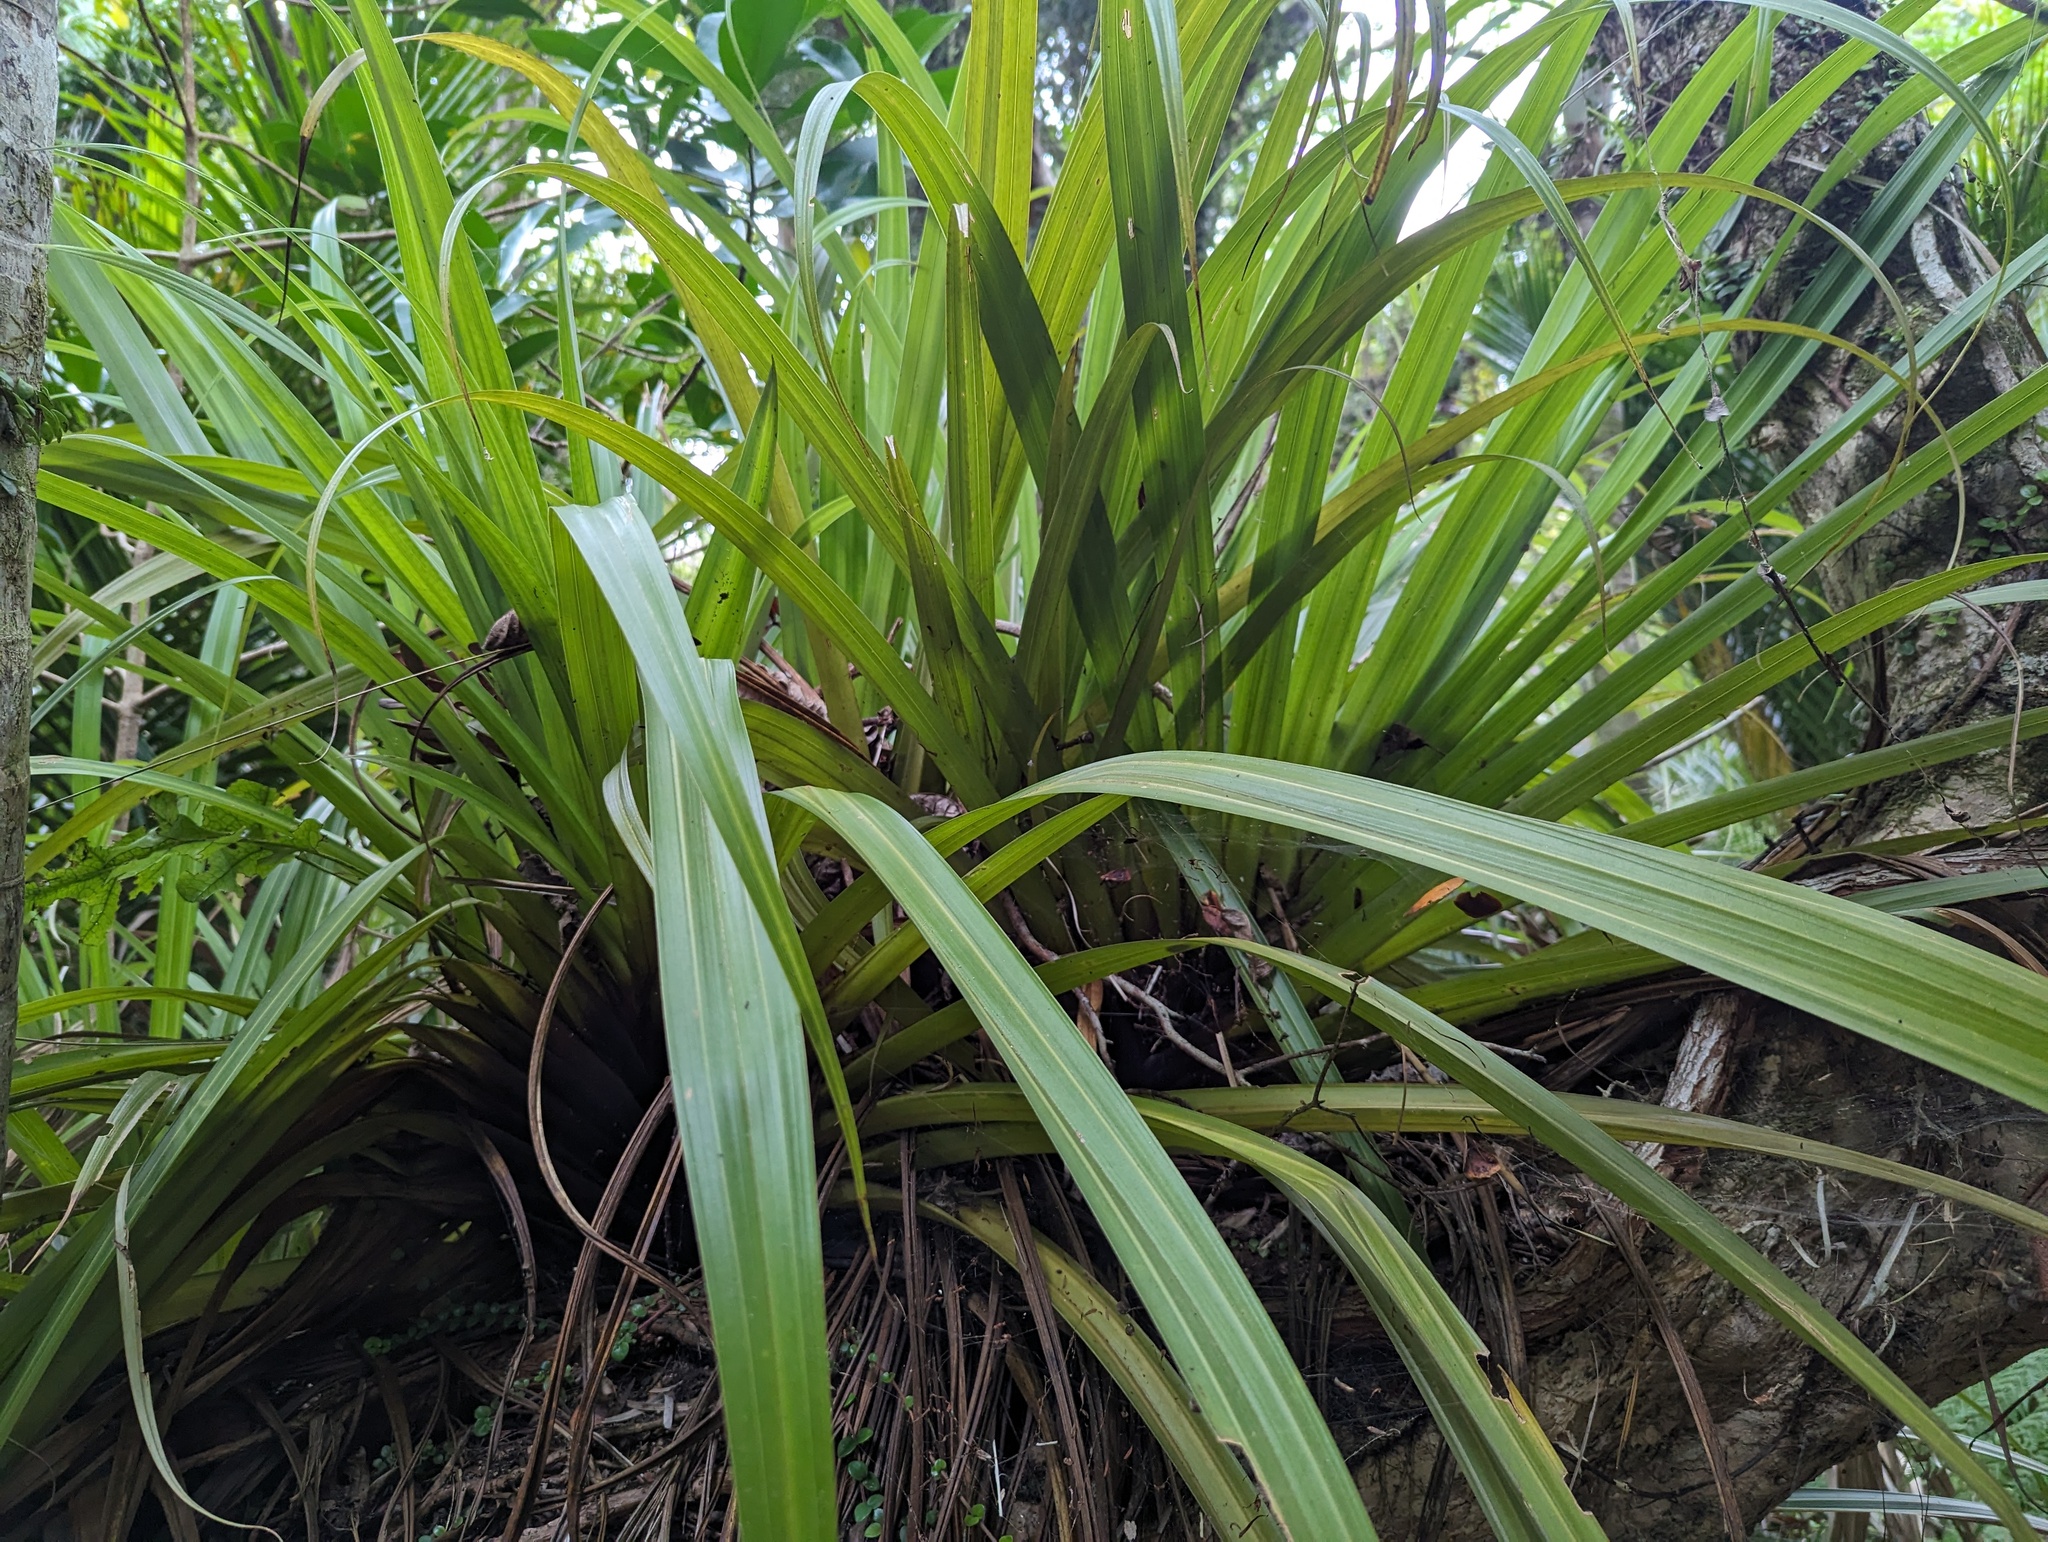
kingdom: Plantae
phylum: Tracheophyta
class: Liliopsida
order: Asparagales
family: Asteliaceae
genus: Astelia
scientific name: Astelia hastata
